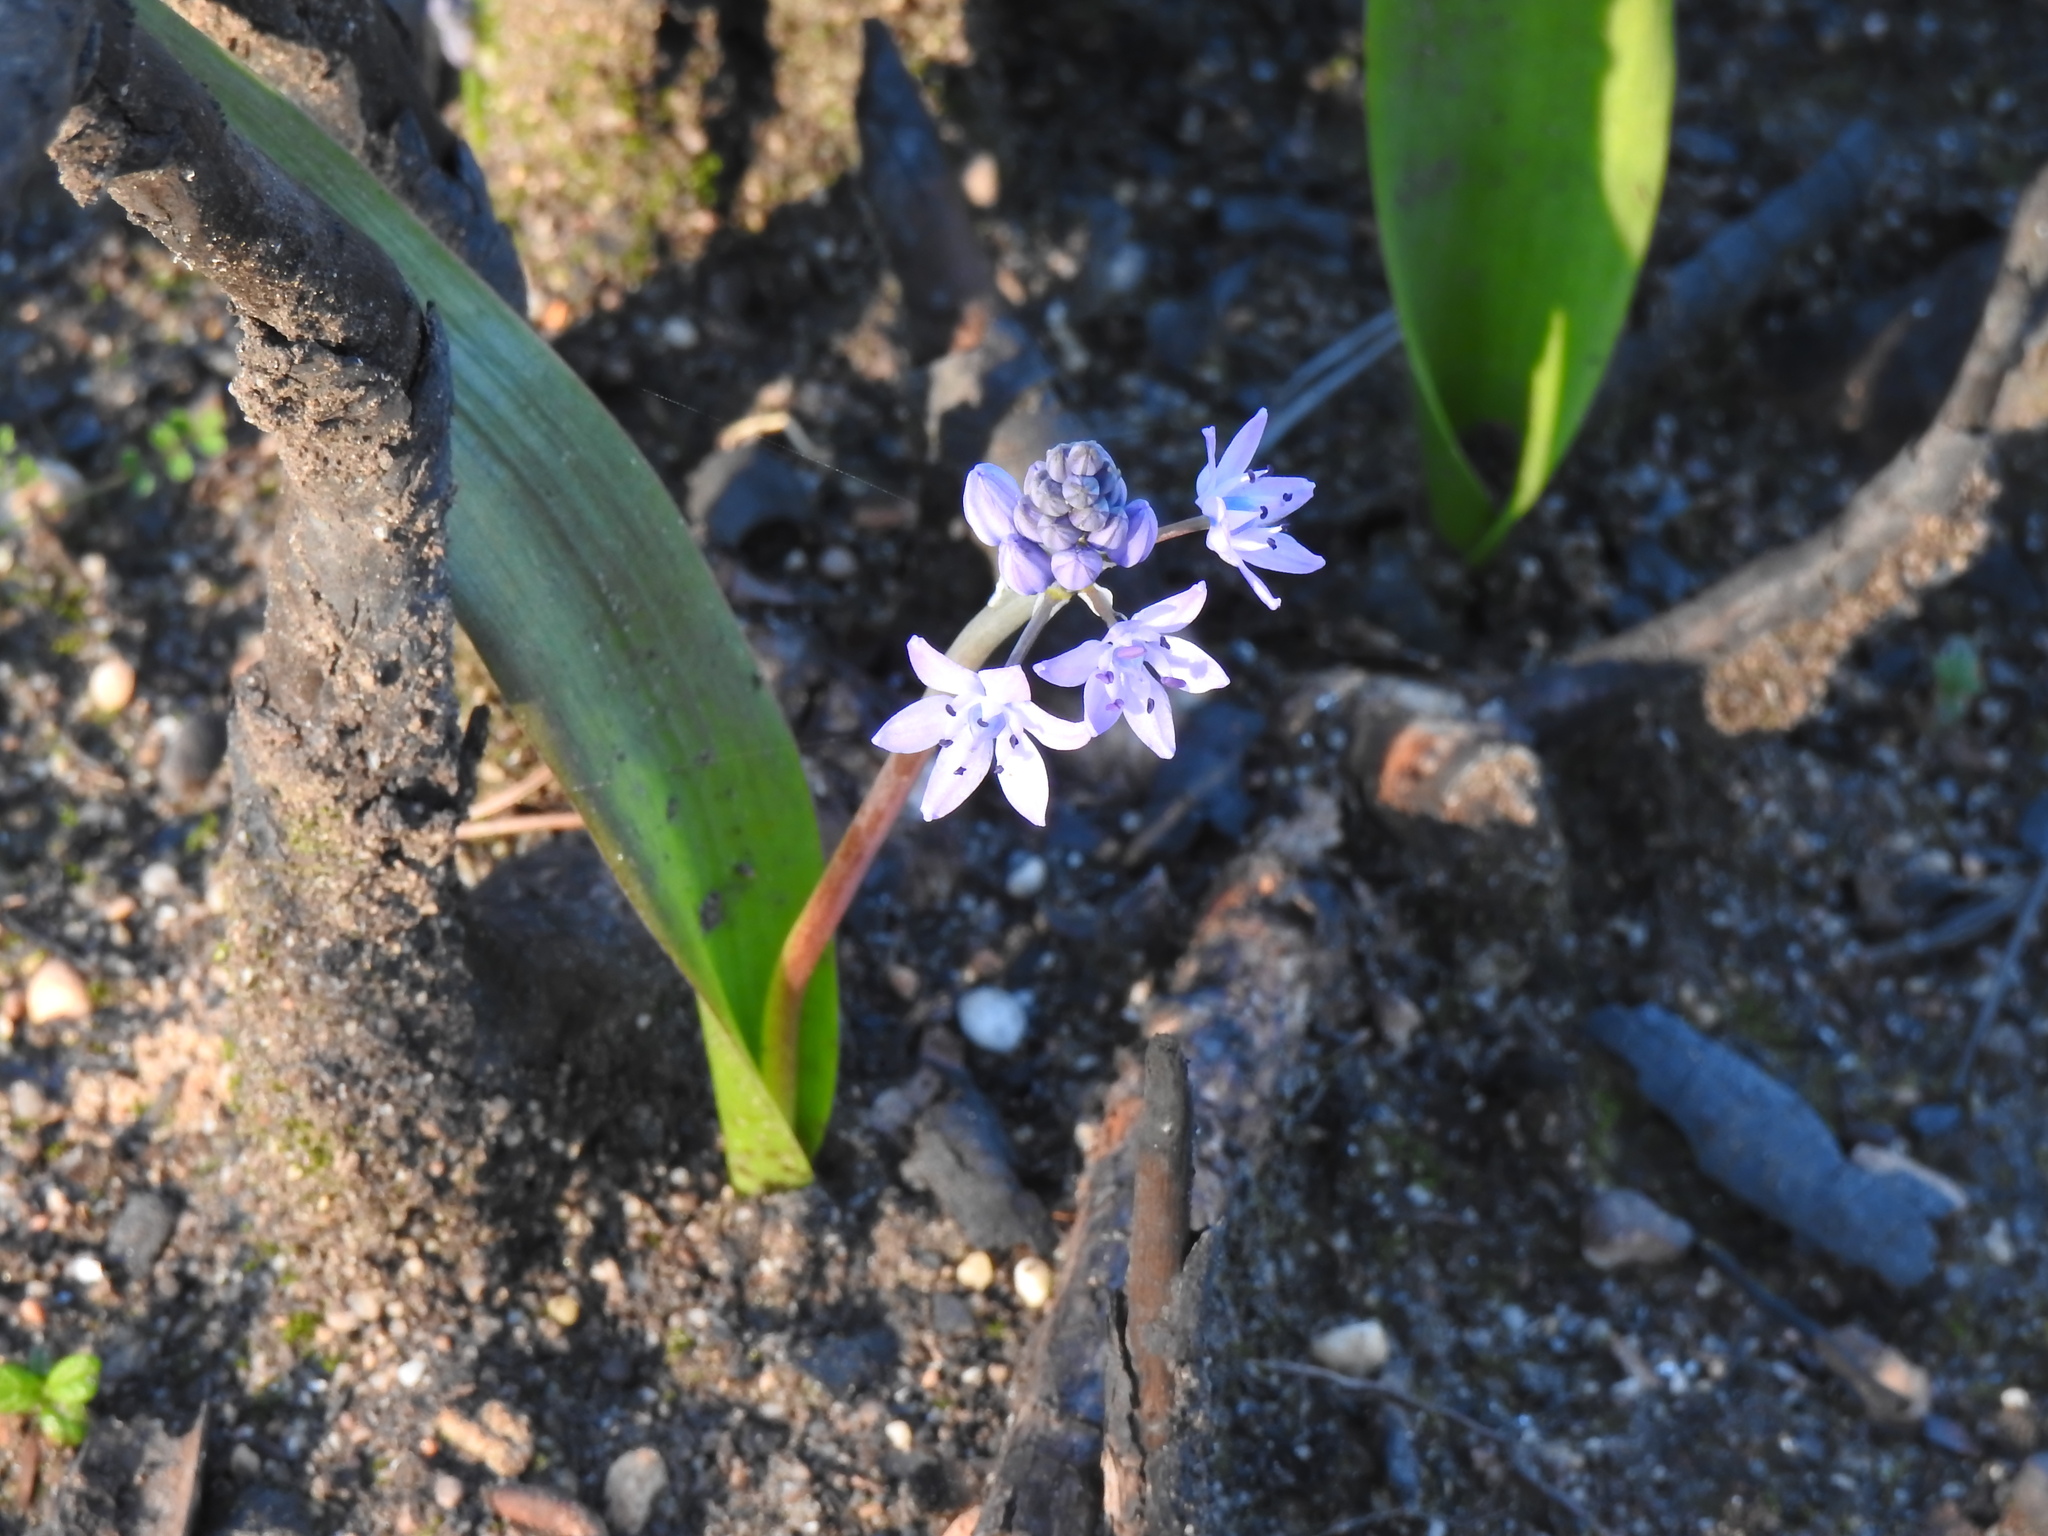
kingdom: Plantae
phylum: Tracheophyta
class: Liliopsida
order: Asparagales
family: Asparagaceae
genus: Scilla
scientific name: Scilla monophyllos
